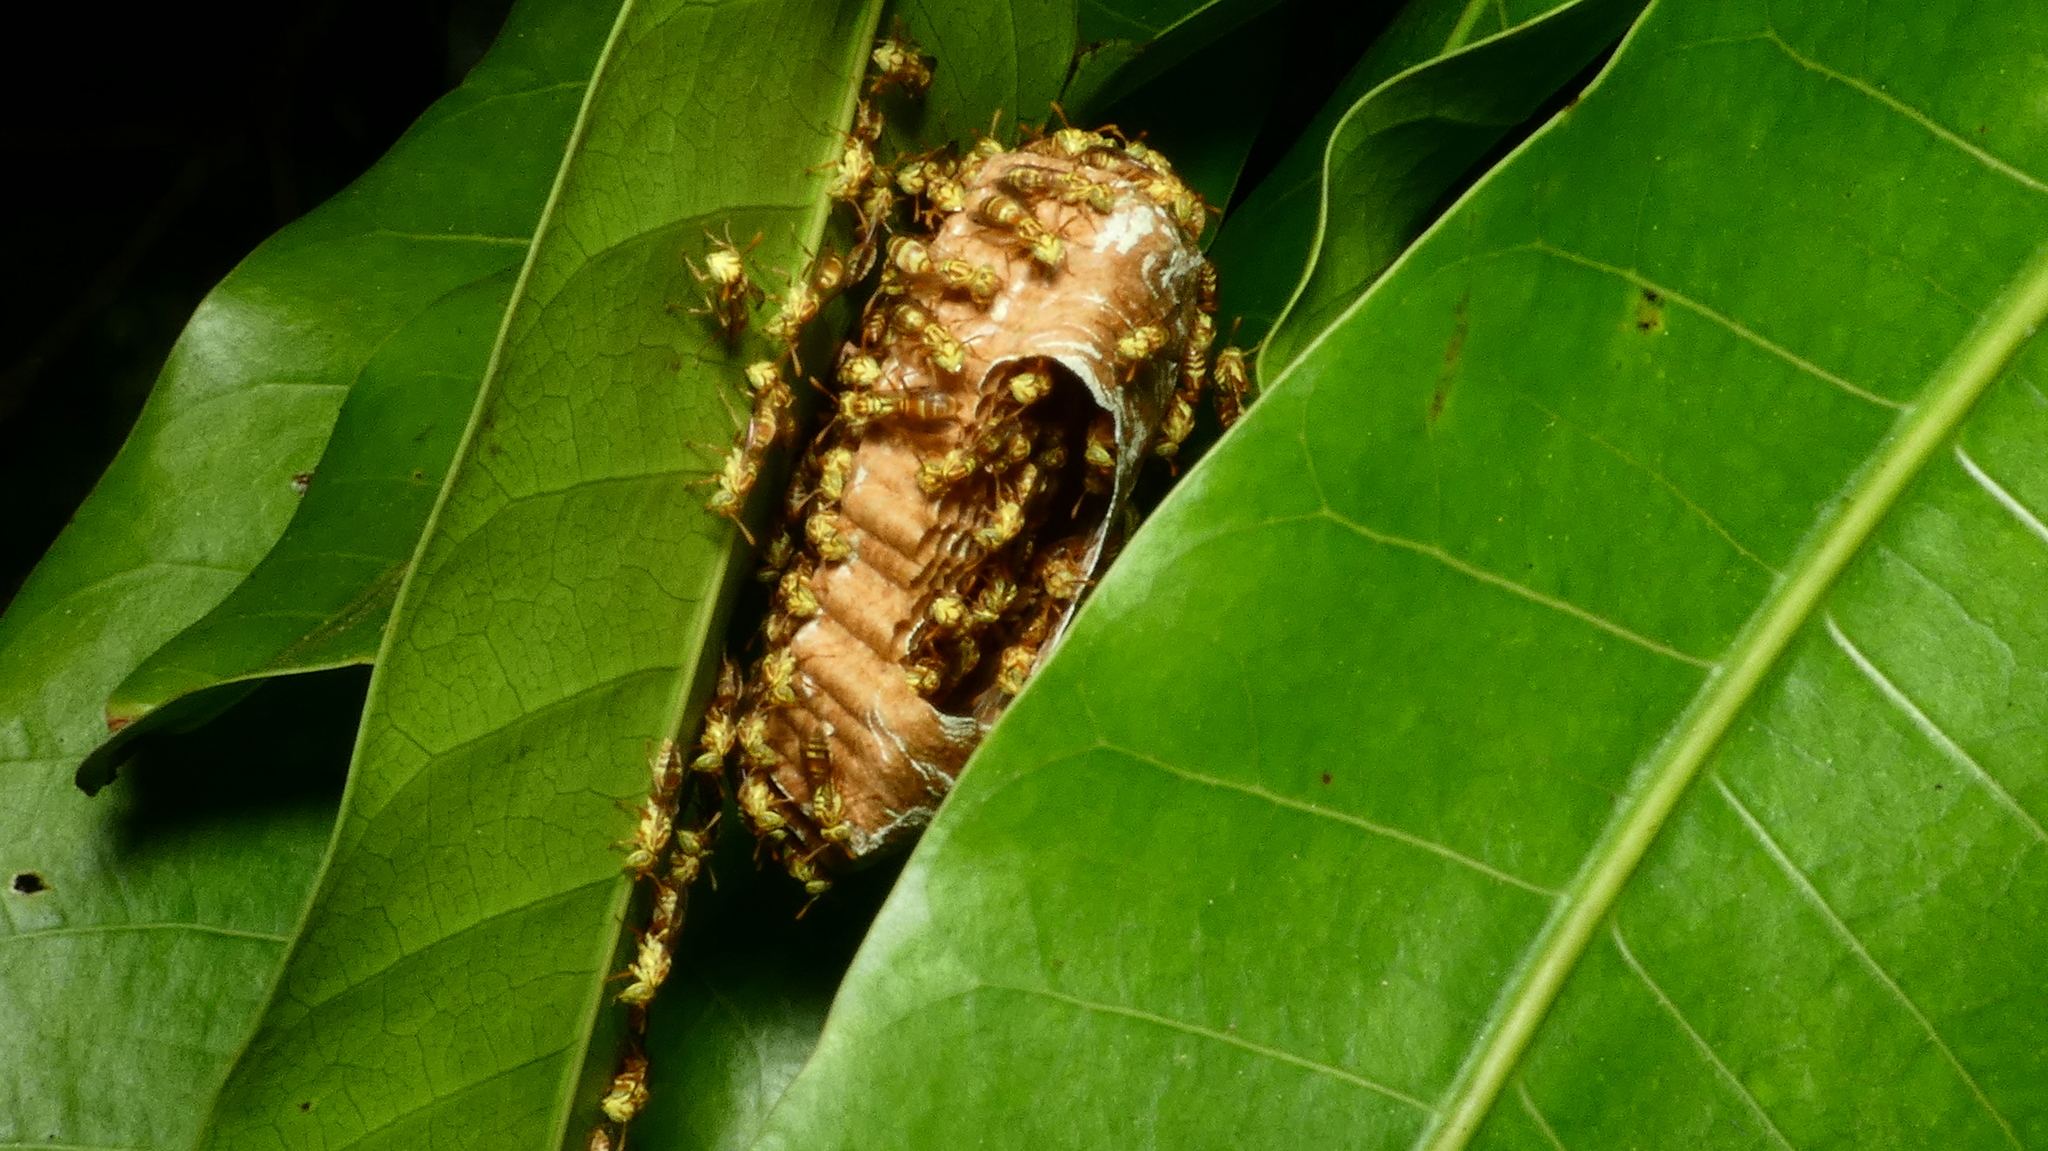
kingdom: Animalia
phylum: Arthropoda
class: Insecta
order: Hymenoptera
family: Vespidae
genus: Protopolybia
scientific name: Protopolybia potiguara
